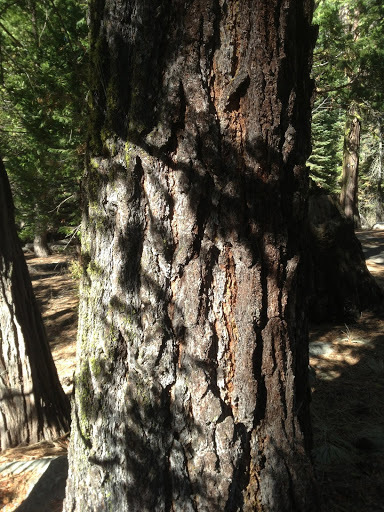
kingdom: Plantae
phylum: Tracheophyta
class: Pinopsida
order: Pinales
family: Pinaceae
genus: Abies
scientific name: Abies concolor
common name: Colorado fir
